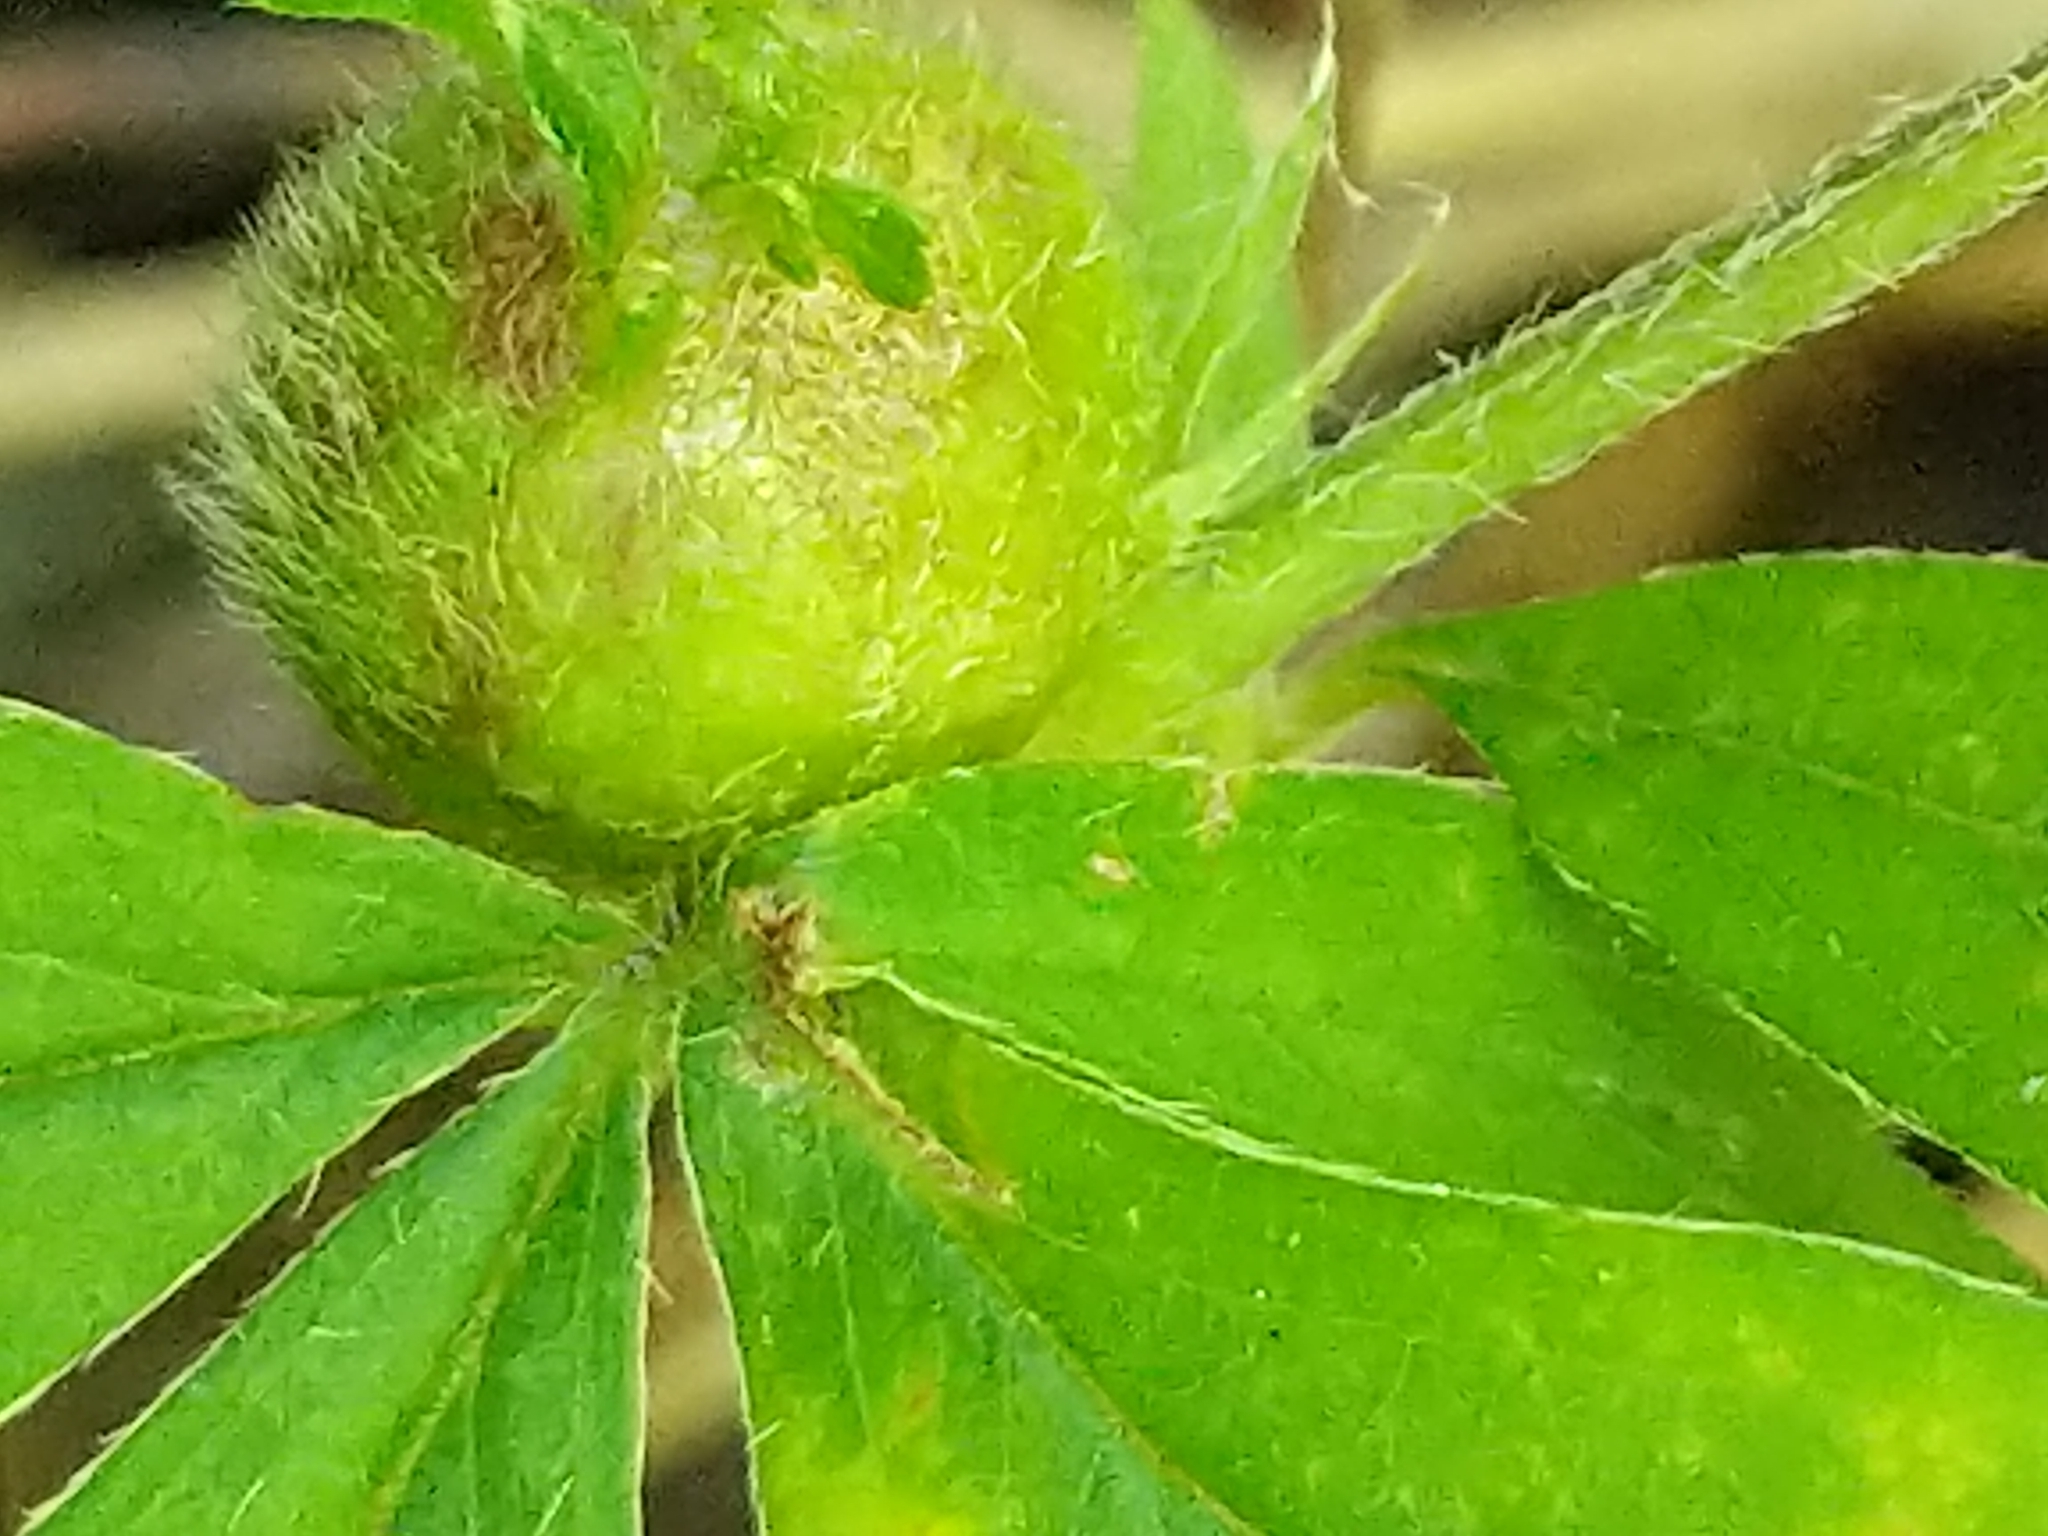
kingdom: Animalia
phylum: Arthropoda
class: Insecta
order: Hymenoptera
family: Cynipidae
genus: Diastrophus
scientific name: Diastrophus potentillae
